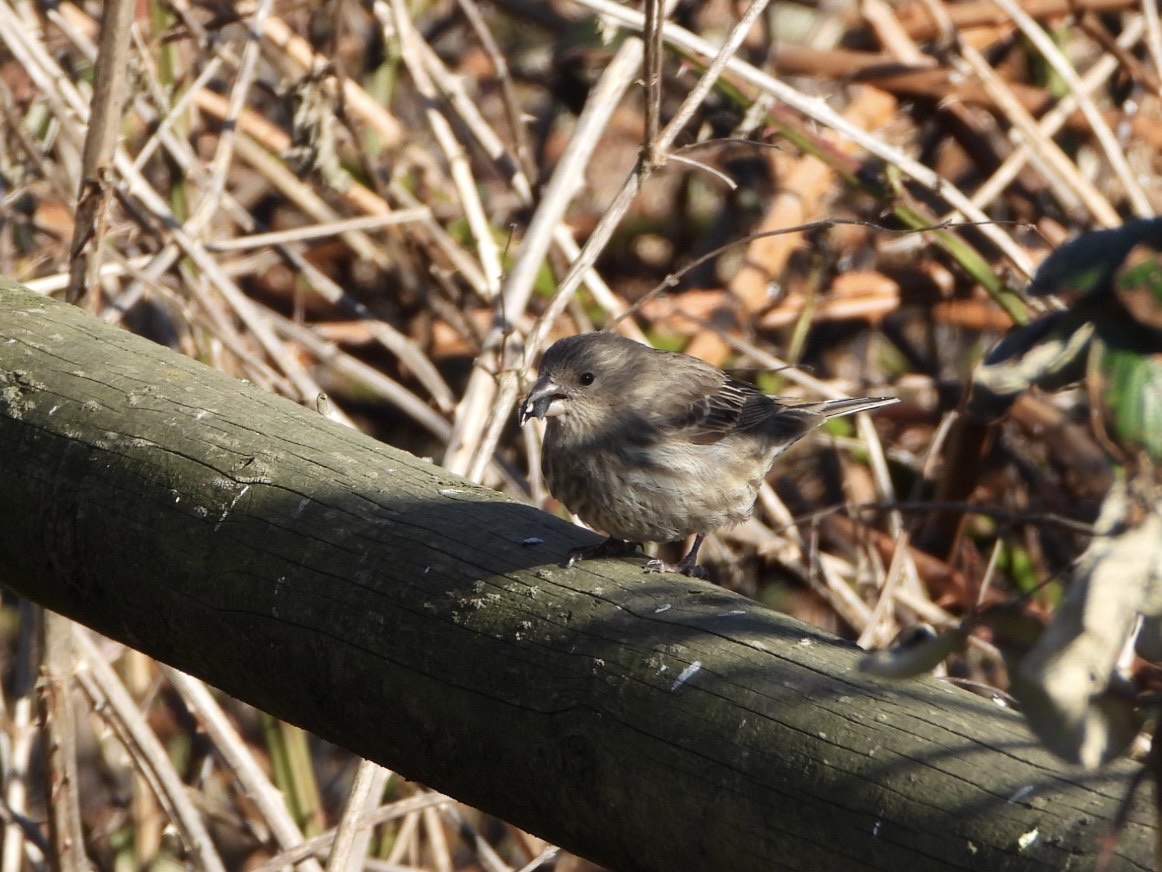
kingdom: Animalia
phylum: Chordata
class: Aves
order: Passeriformes
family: Fringillidae
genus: Haemorhous
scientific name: Haemorhous mexicanus
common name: House finch
